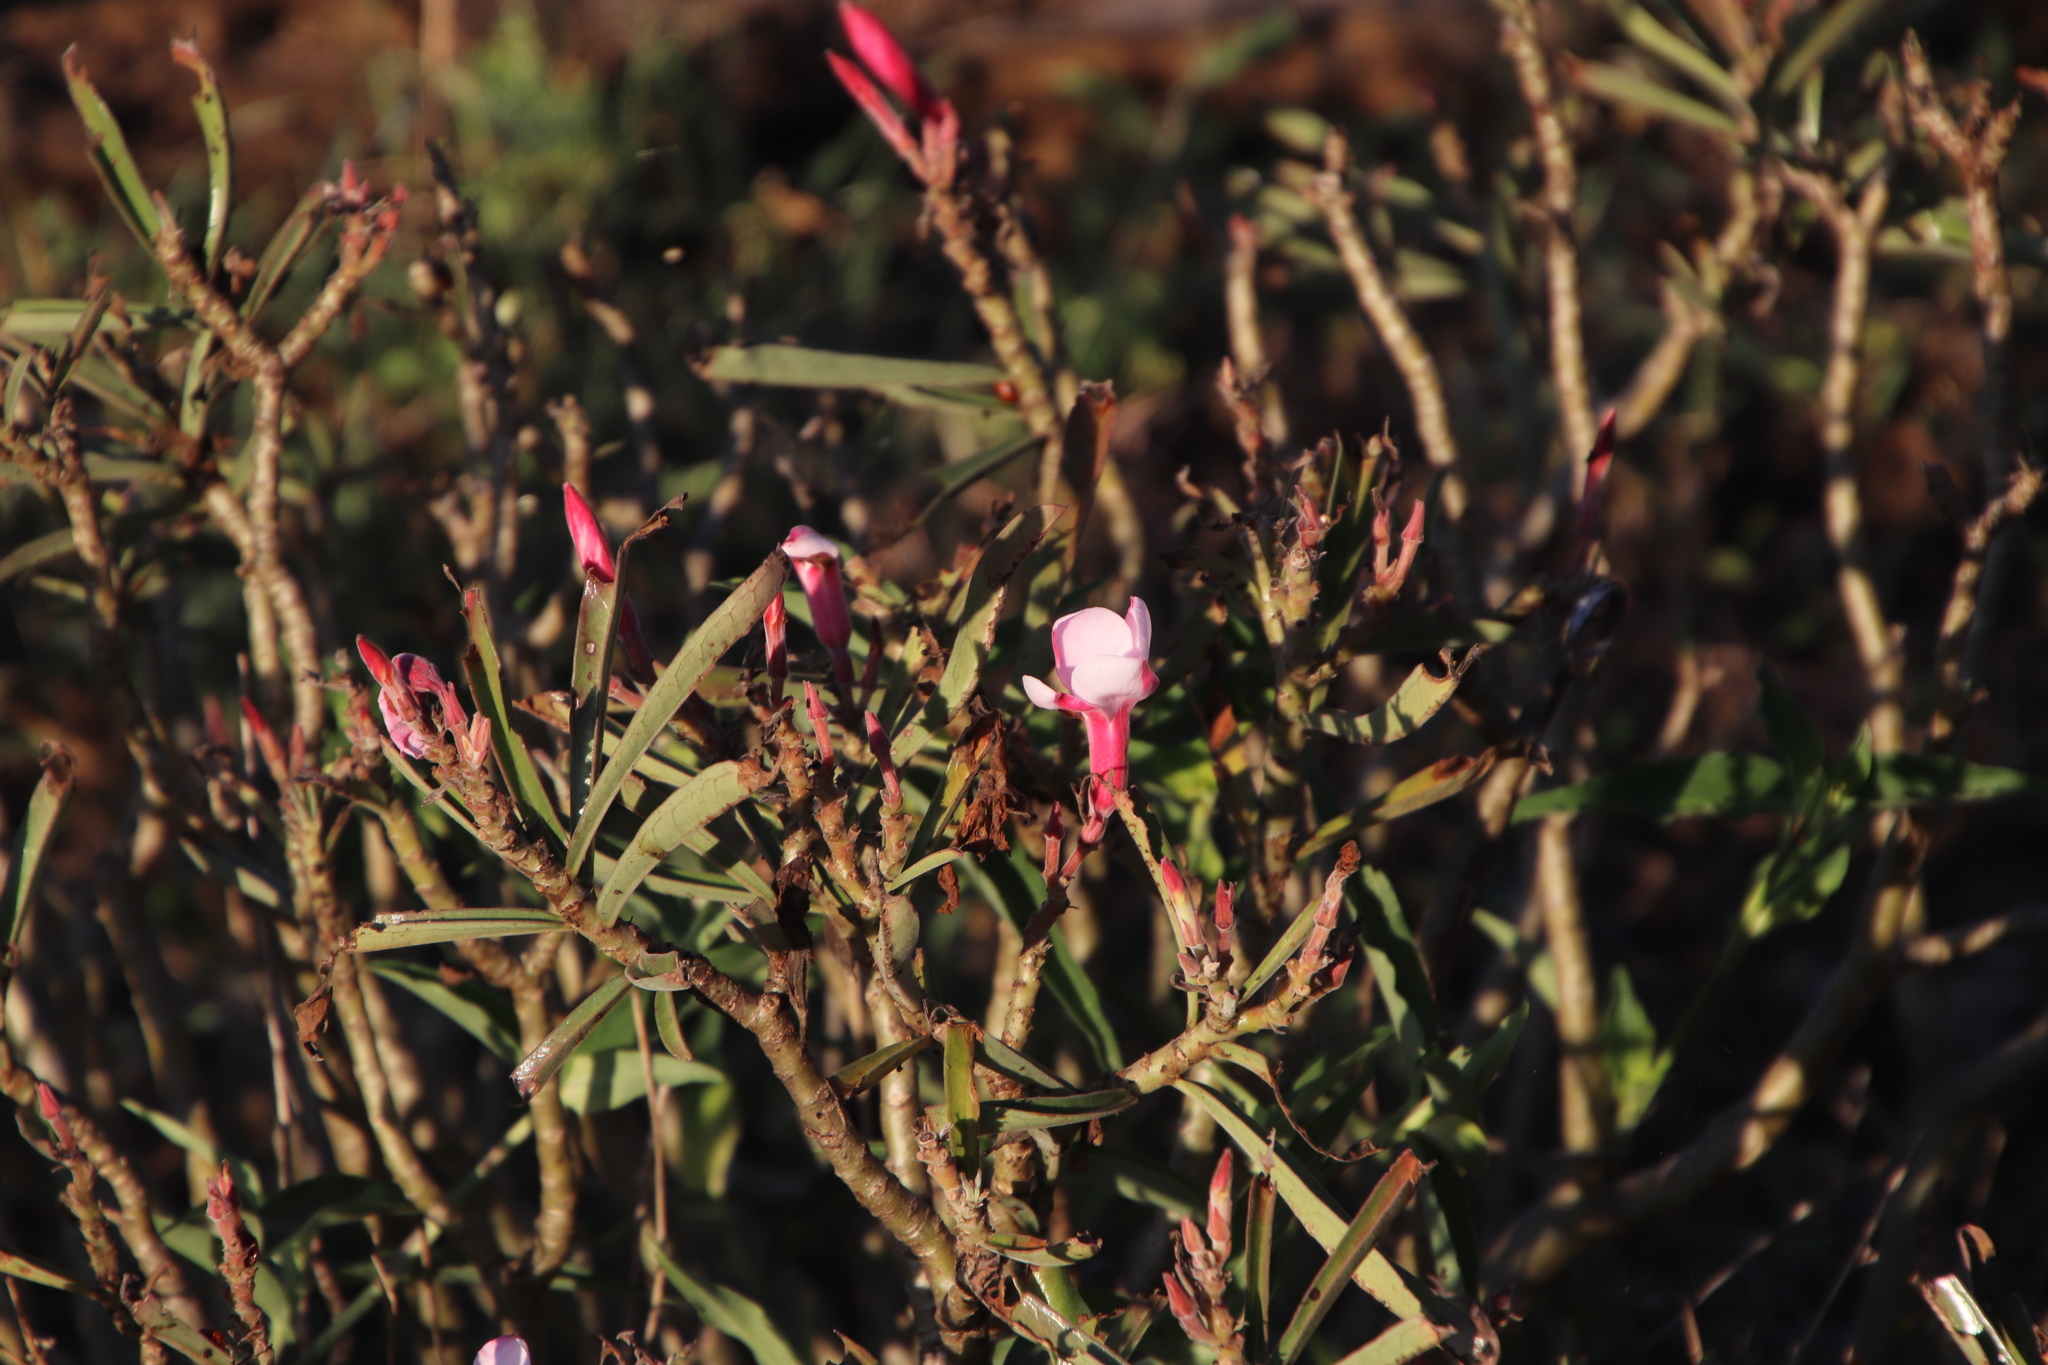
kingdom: Plantae
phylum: Tracheophyta
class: Magnoliopsida
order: Gentianales
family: Apocynaceae
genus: Adenium
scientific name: Adenium obesum
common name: Desert-rose
